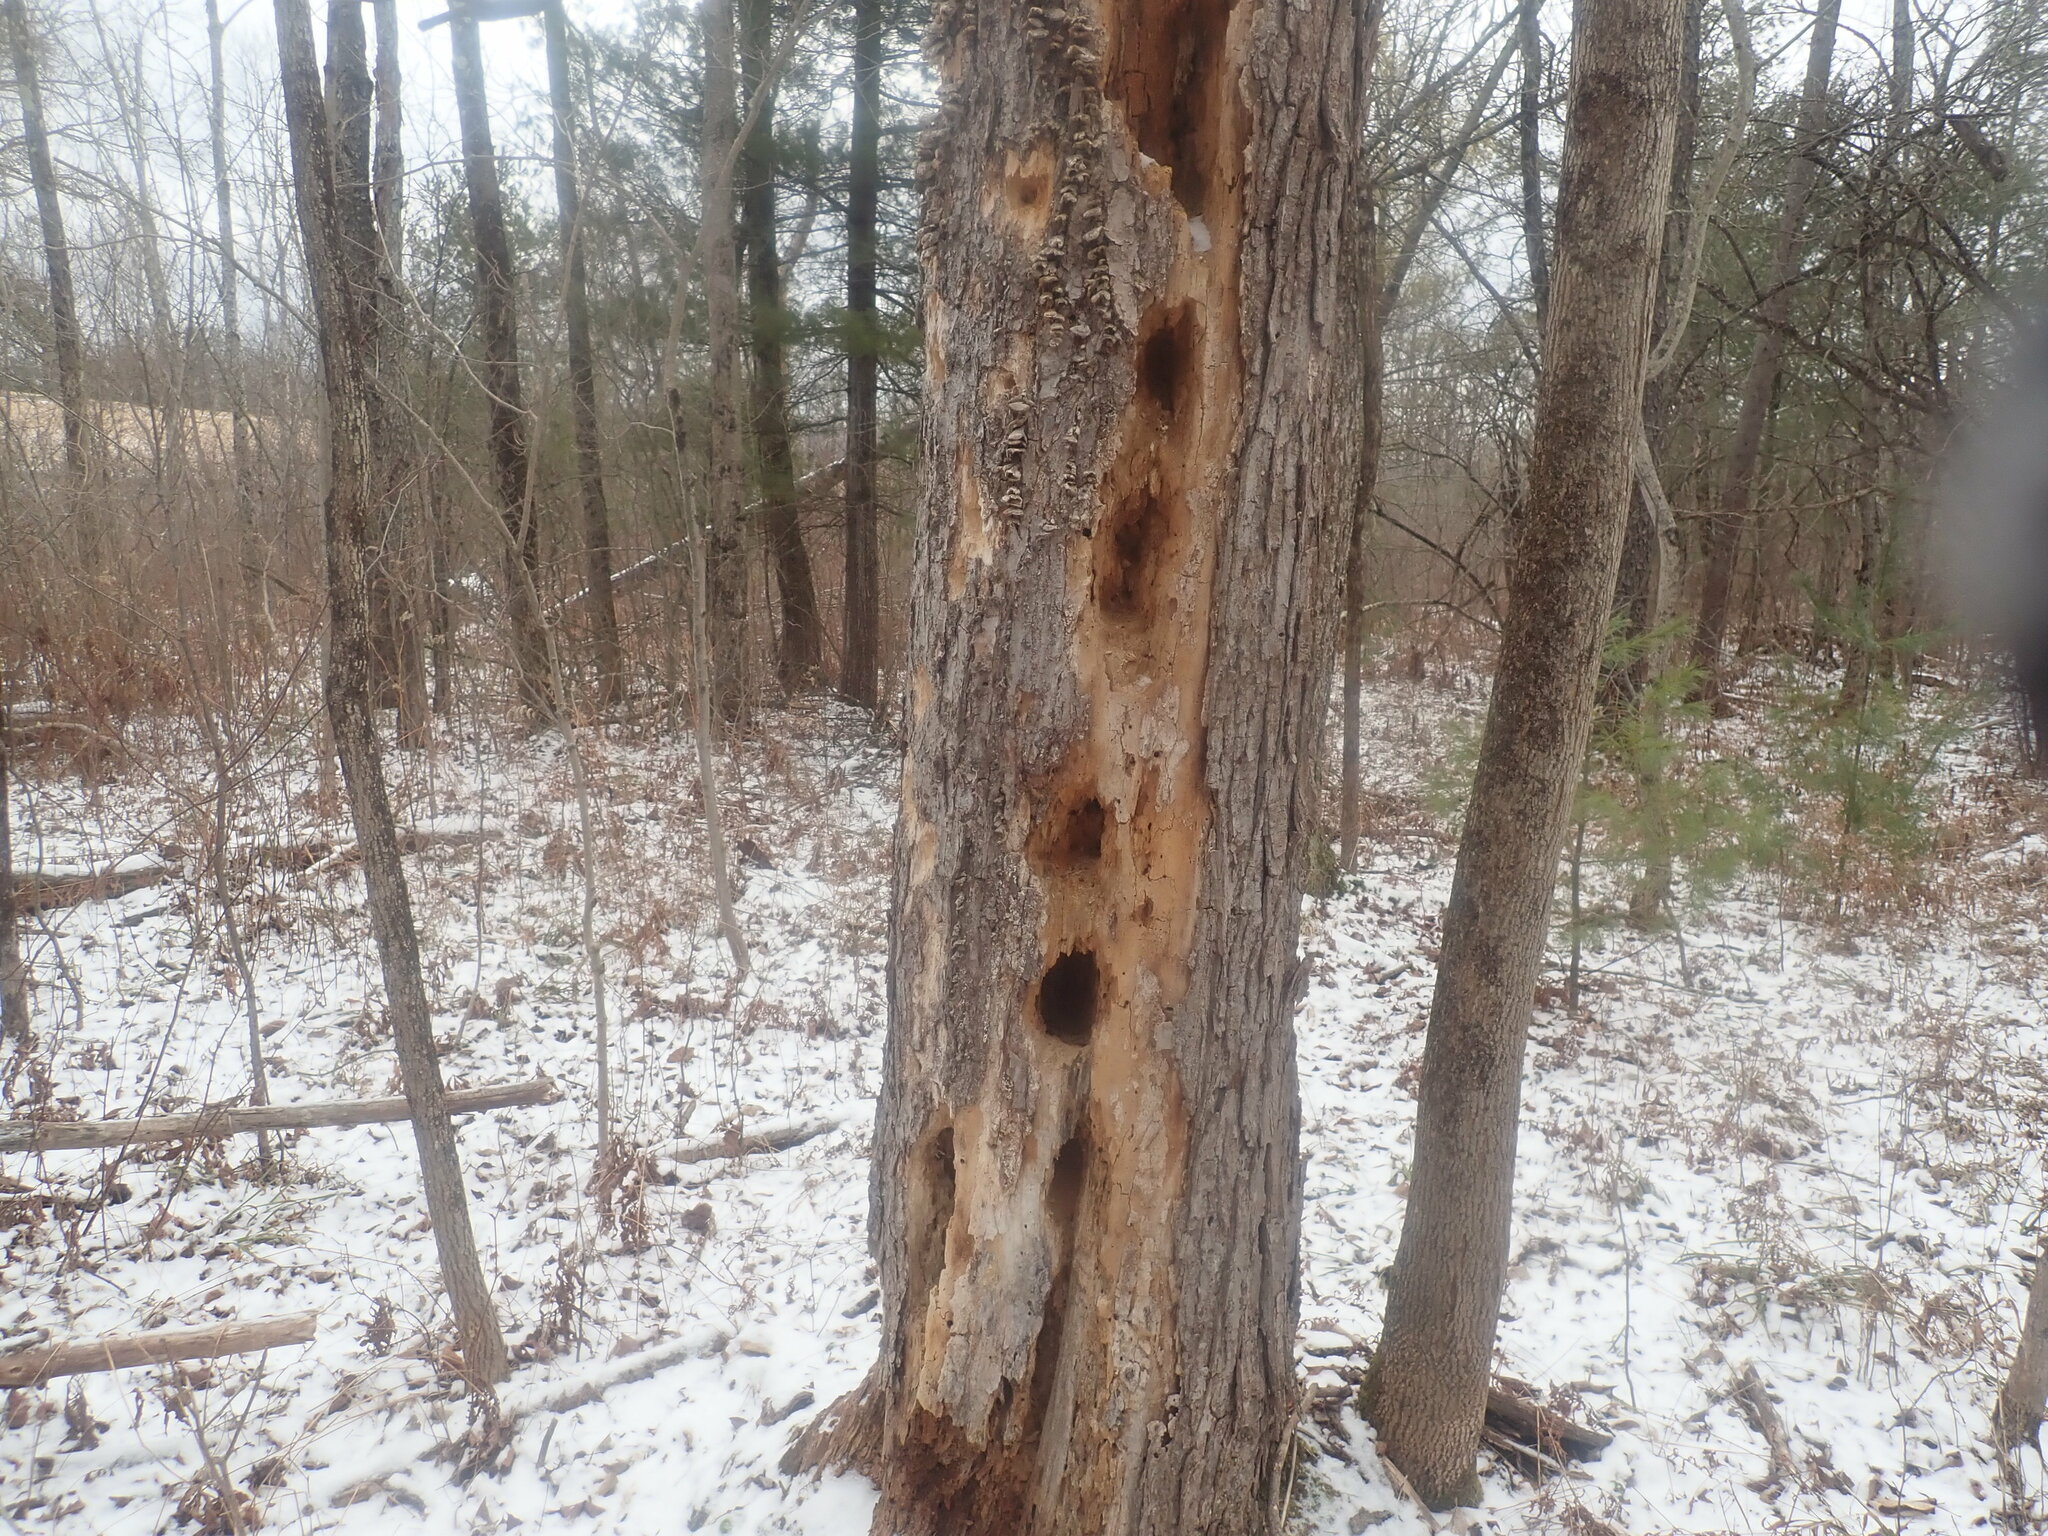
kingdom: Animalia
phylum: Chordata
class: Aves
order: Piciformes
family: Picidae
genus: Dryocopus
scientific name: Dryocopus pileatus
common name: Pileated woodpecker
